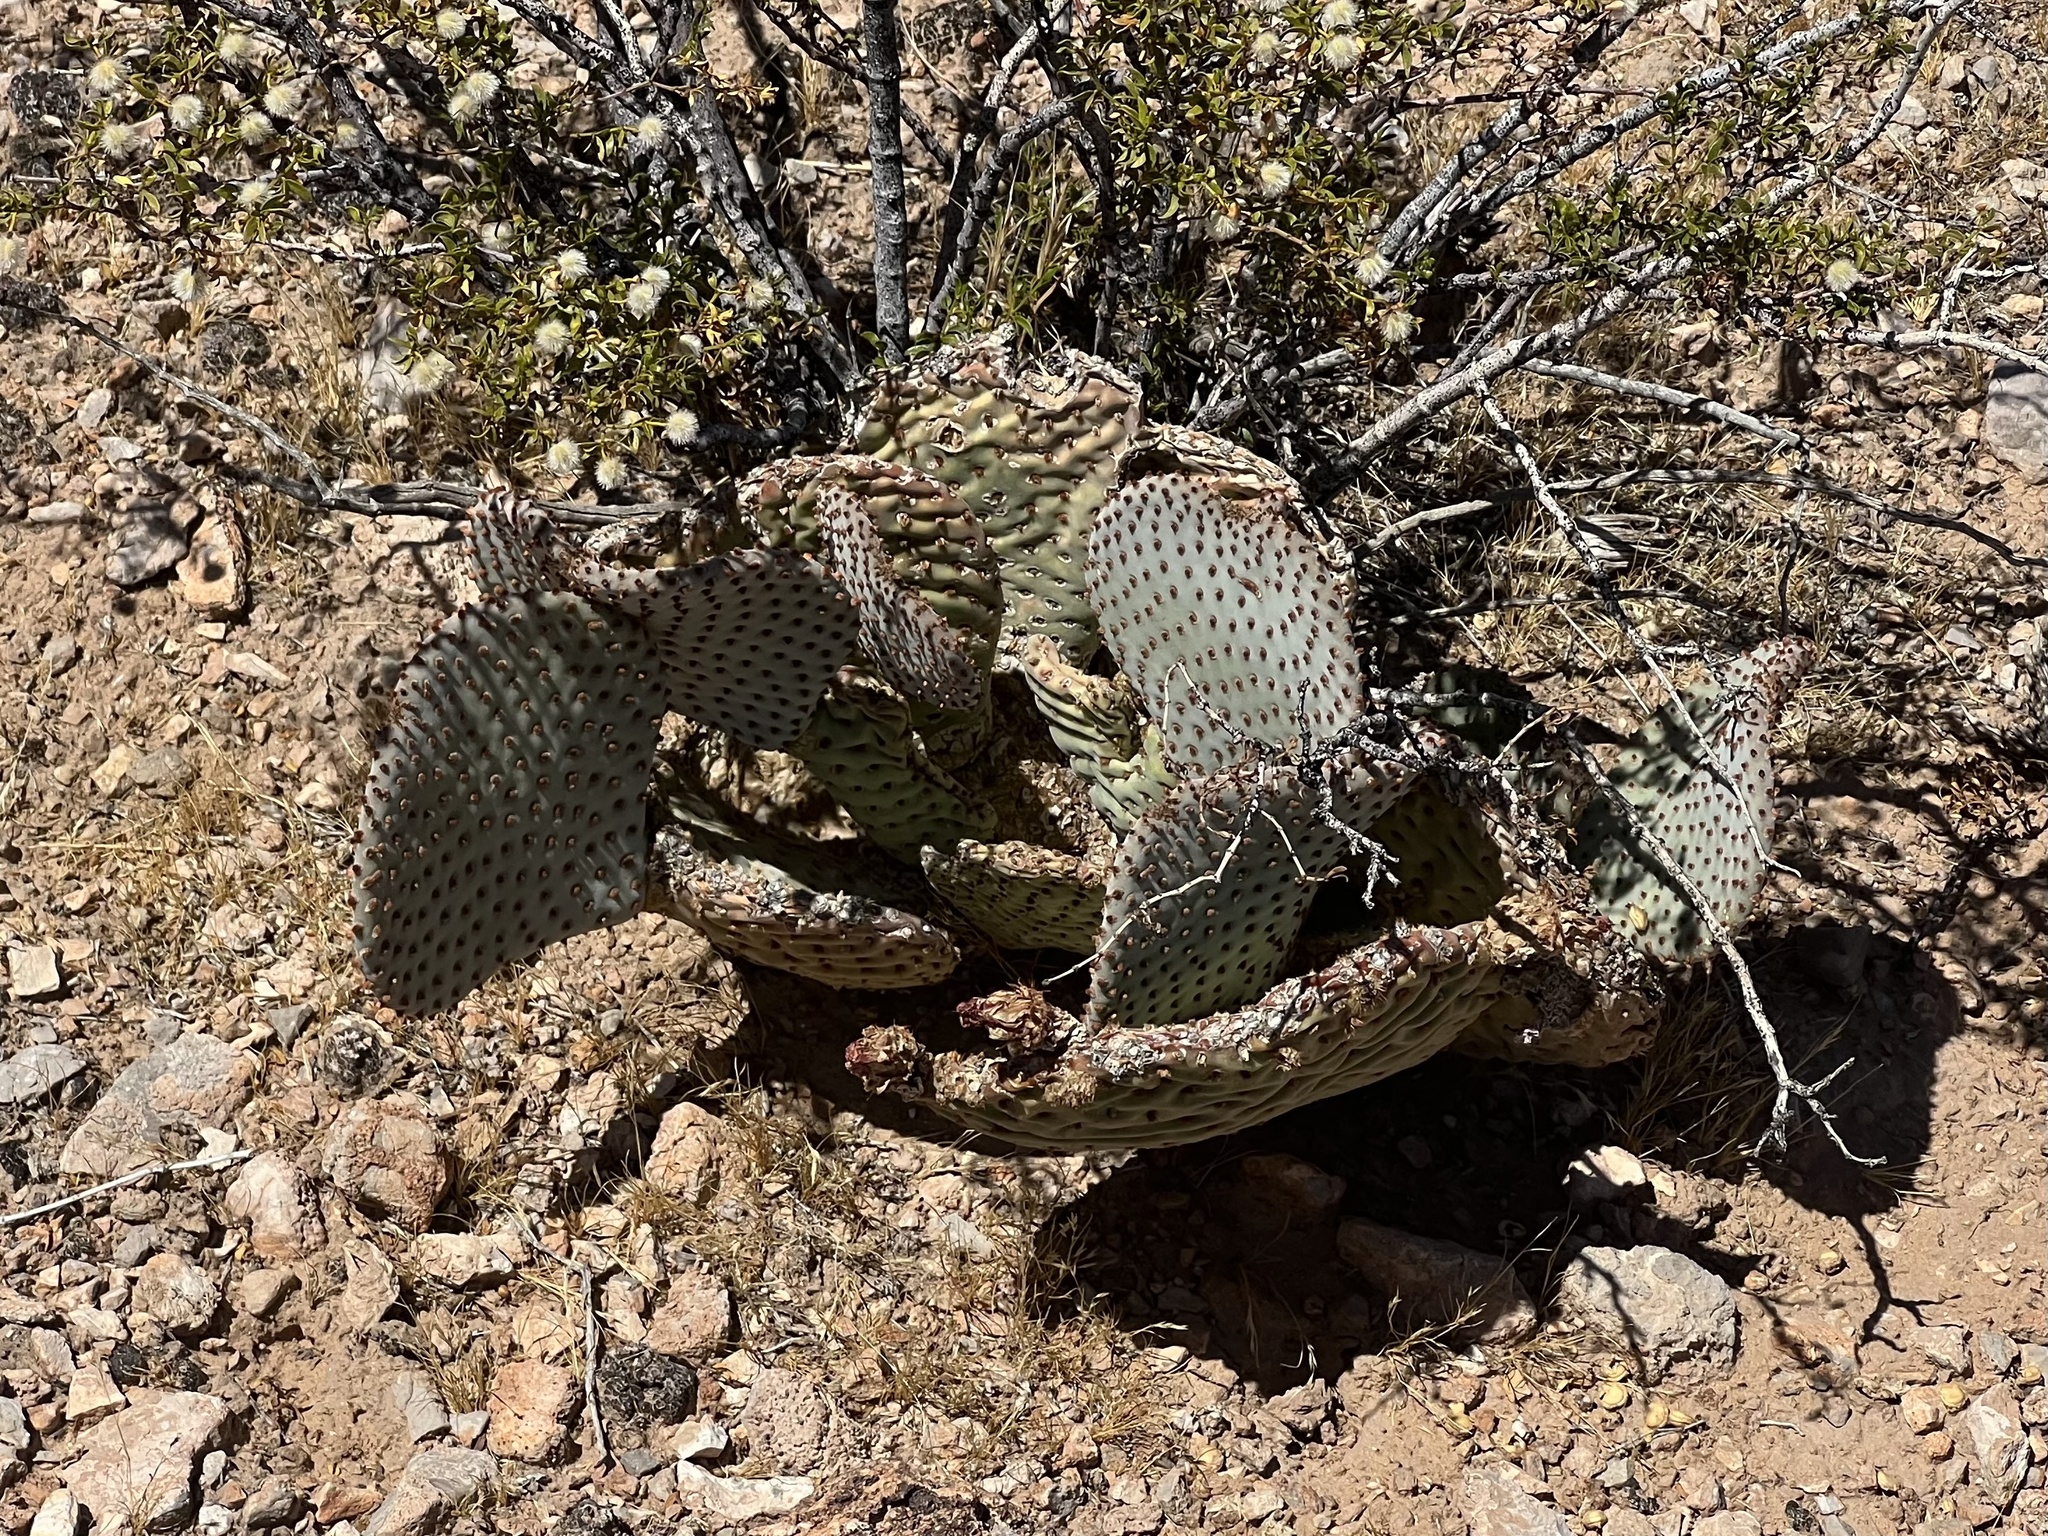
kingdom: Plantae
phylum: Tracheophyta
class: Magnoliopsida
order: Caryophyllales
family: Cactaceae
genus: Opuntia
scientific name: Opuntia basilaris
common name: Beavertail prickly-pear
